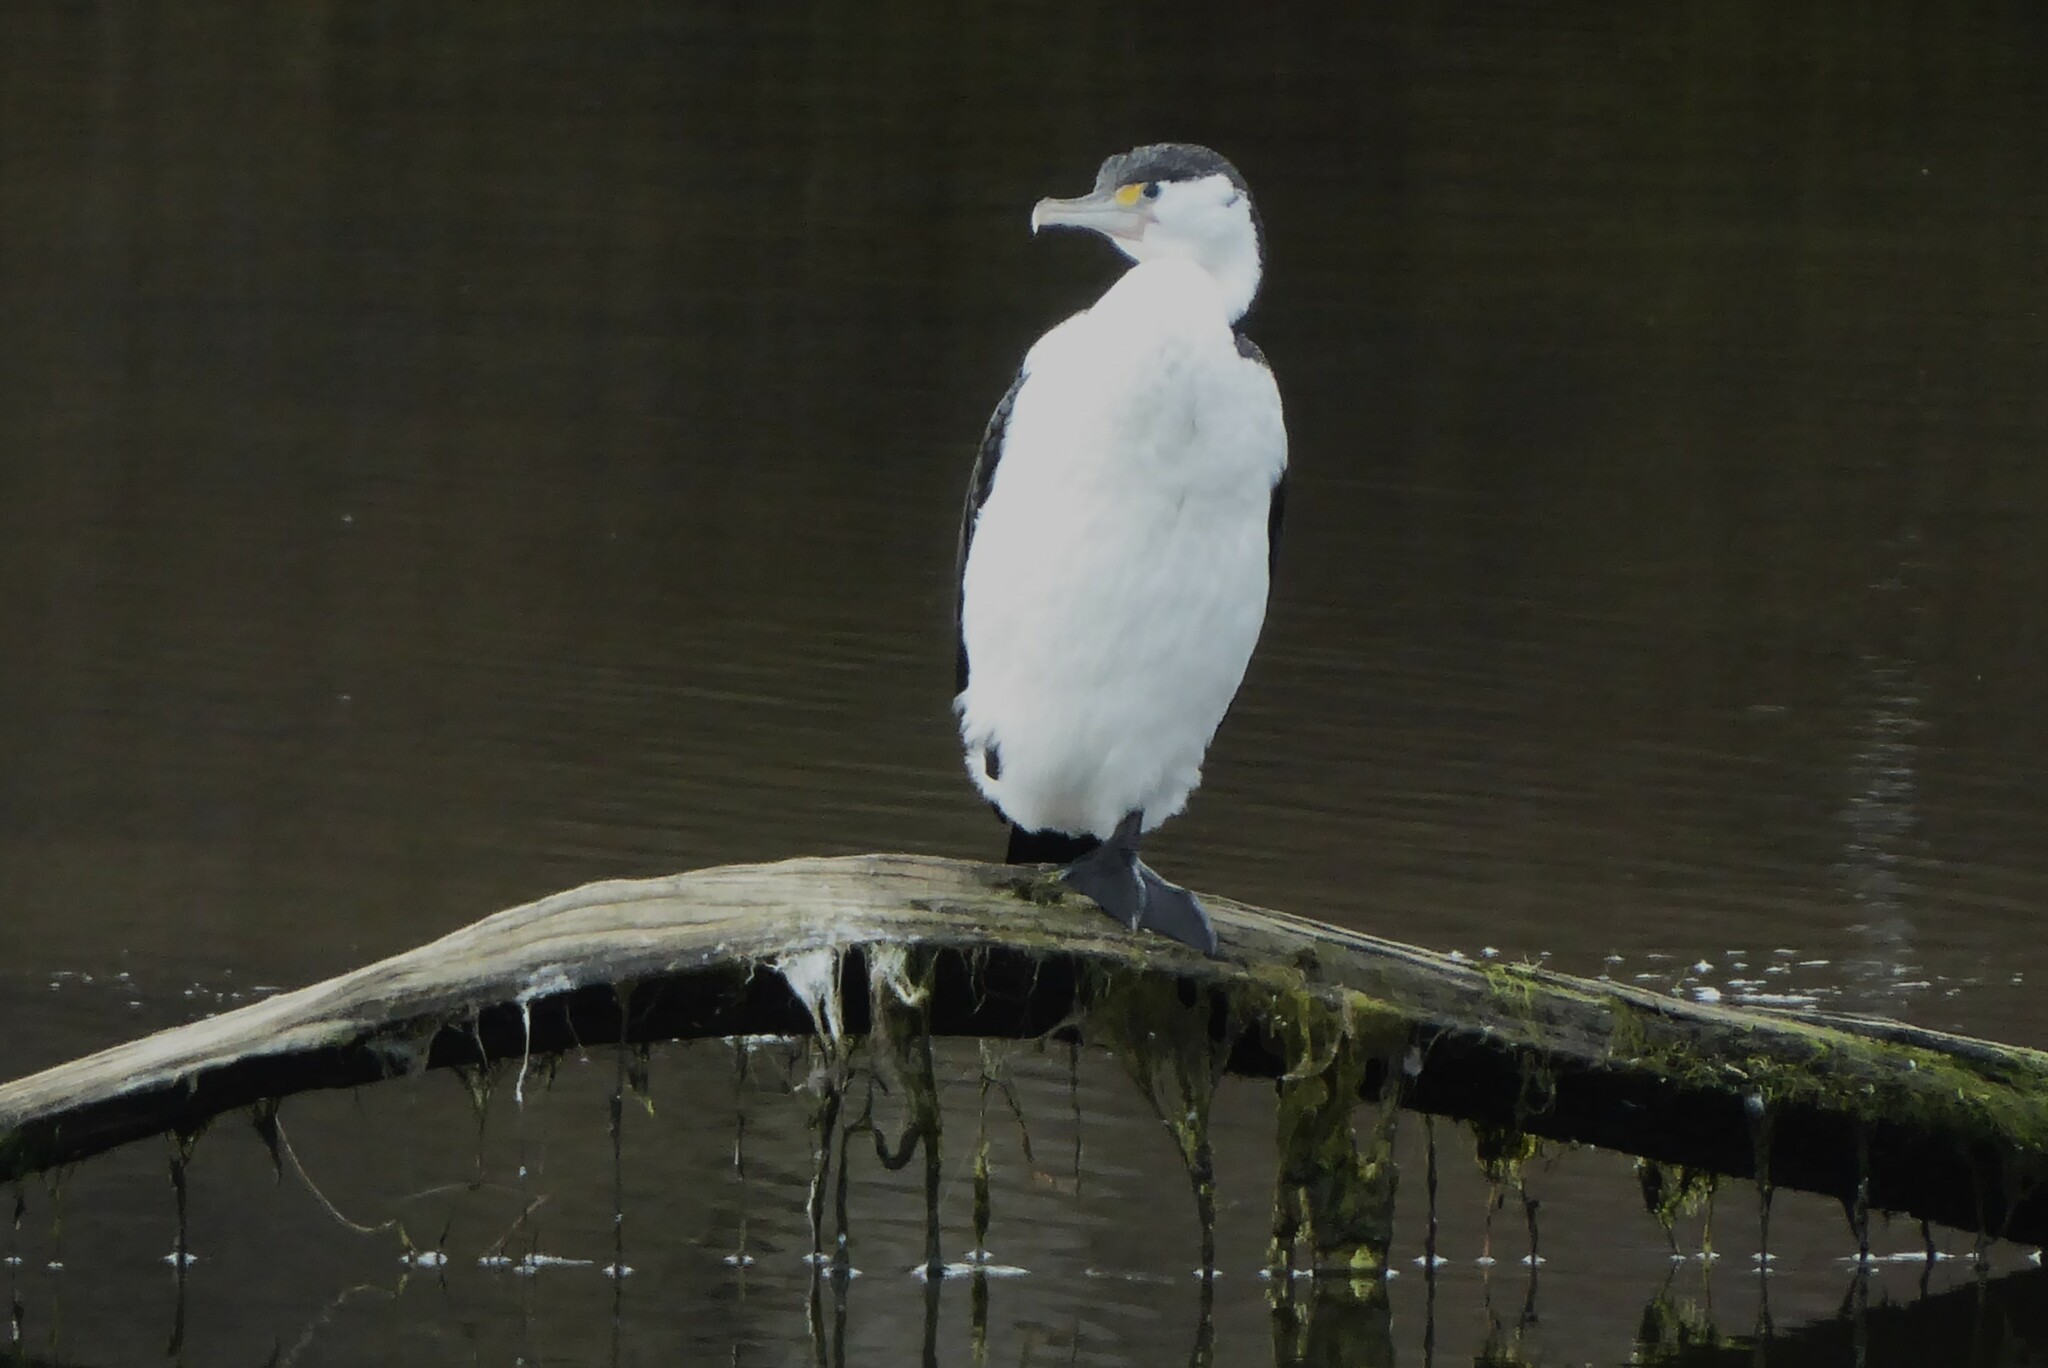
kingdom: Animalia
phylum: Chordata
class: Aves
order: Suliformes
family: Phalacrocoracidae
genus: Phalacrocorax
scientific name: Phalacrocorax varius
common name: Pied cormorant
